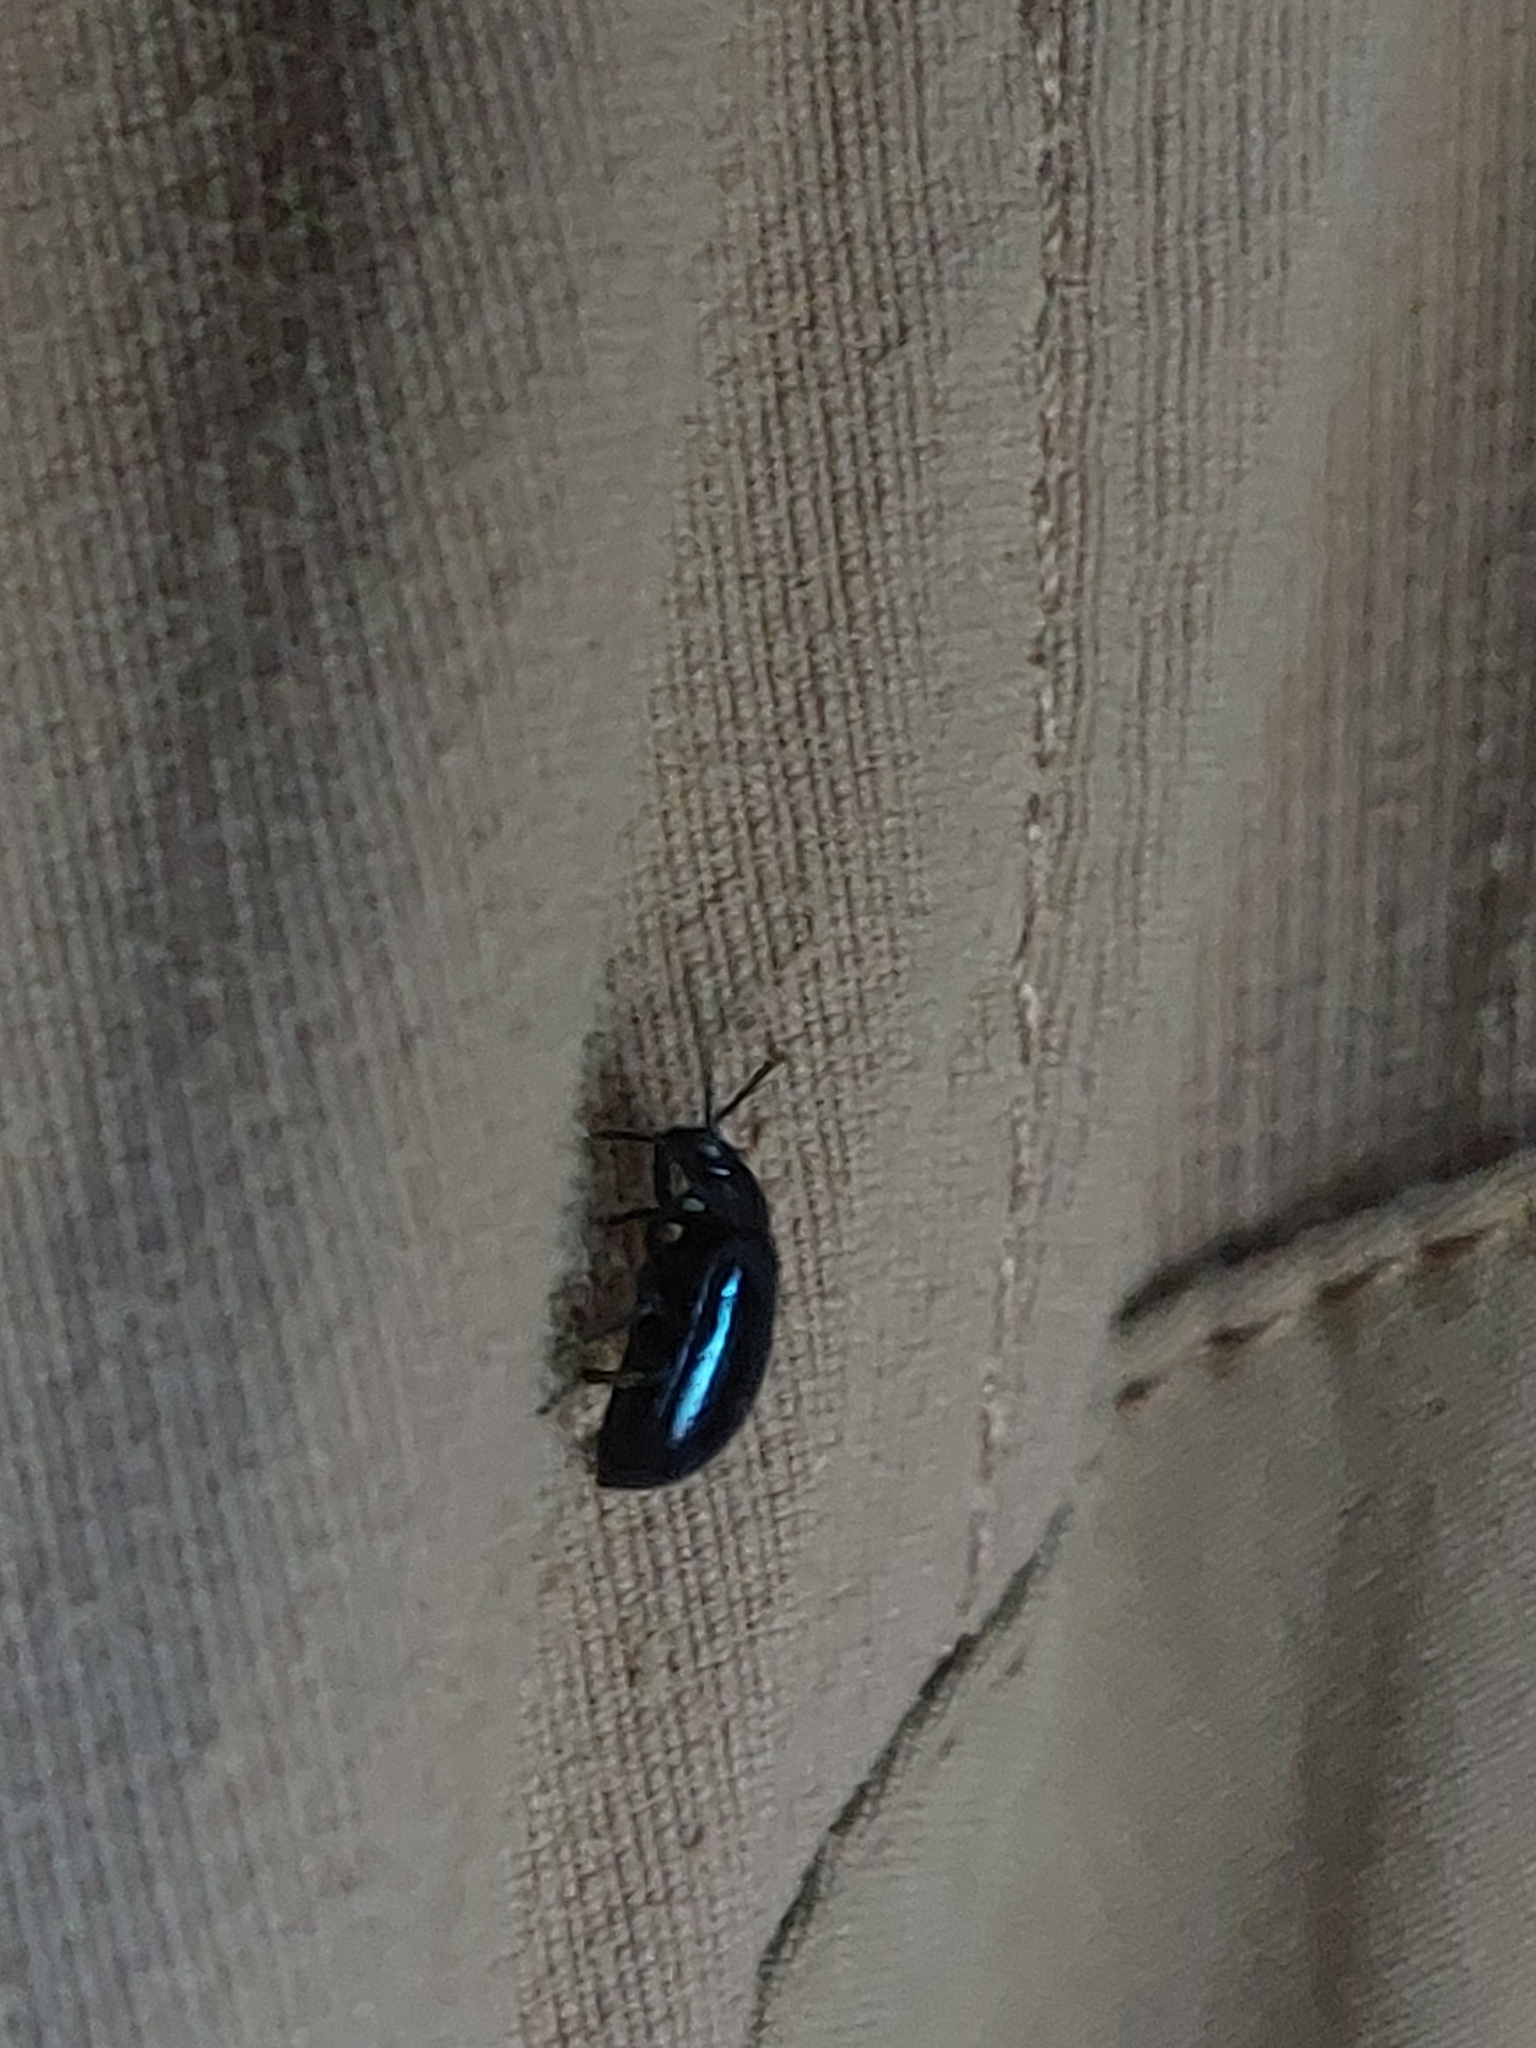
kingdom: Animalia
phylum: Arthropoda
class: Insecta
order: Coleoptera
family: Chrysomelidae
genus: Agelastica
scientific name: Agelastica alni
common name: Alder leaf beetle
